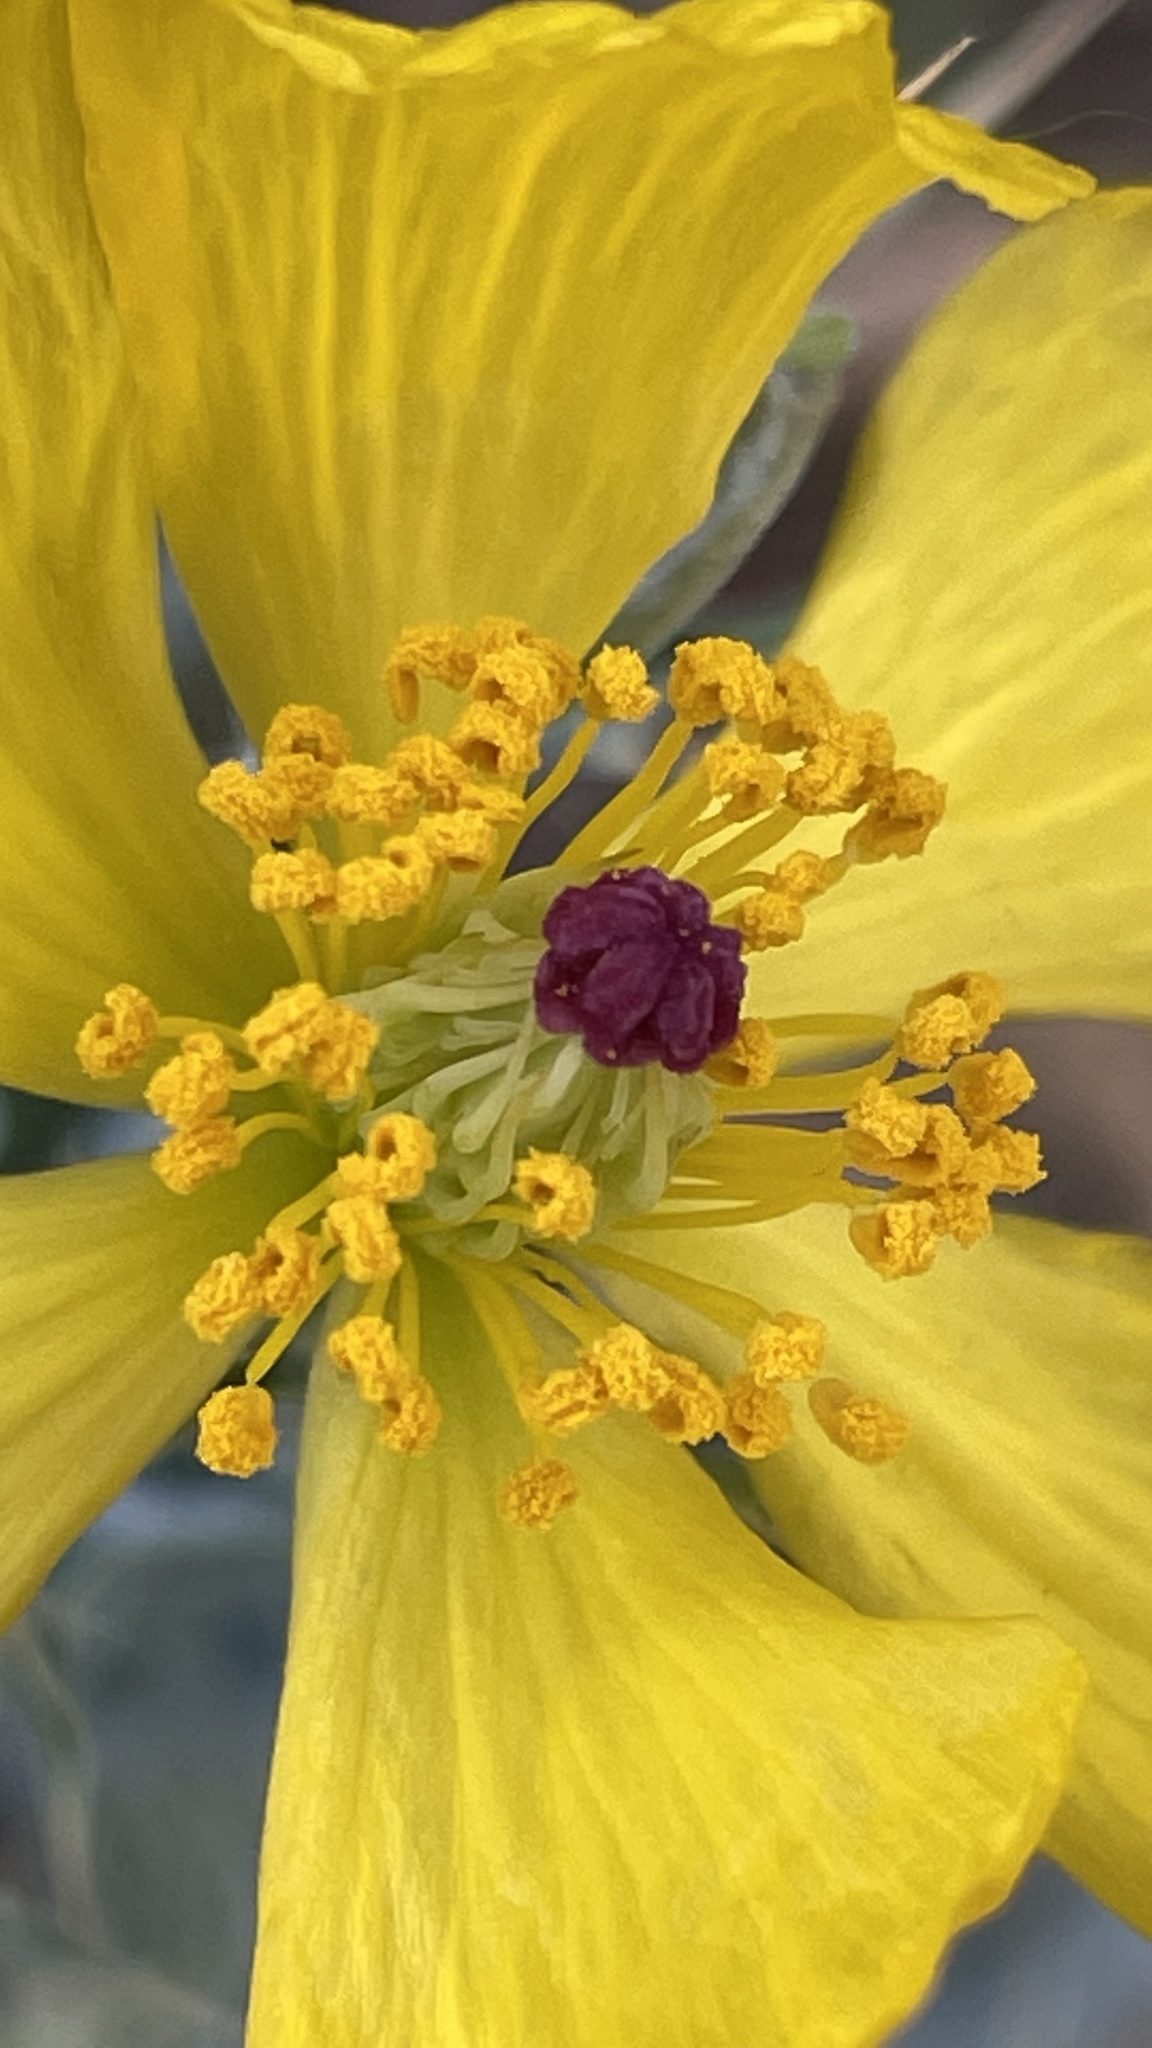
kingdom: Plantae
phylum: Tracheophyta
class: Magnoliopsida
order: Ranunculales
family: Papaveraceae
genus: Argemone
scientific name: Argemone mexicana
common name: Mexican poppy
